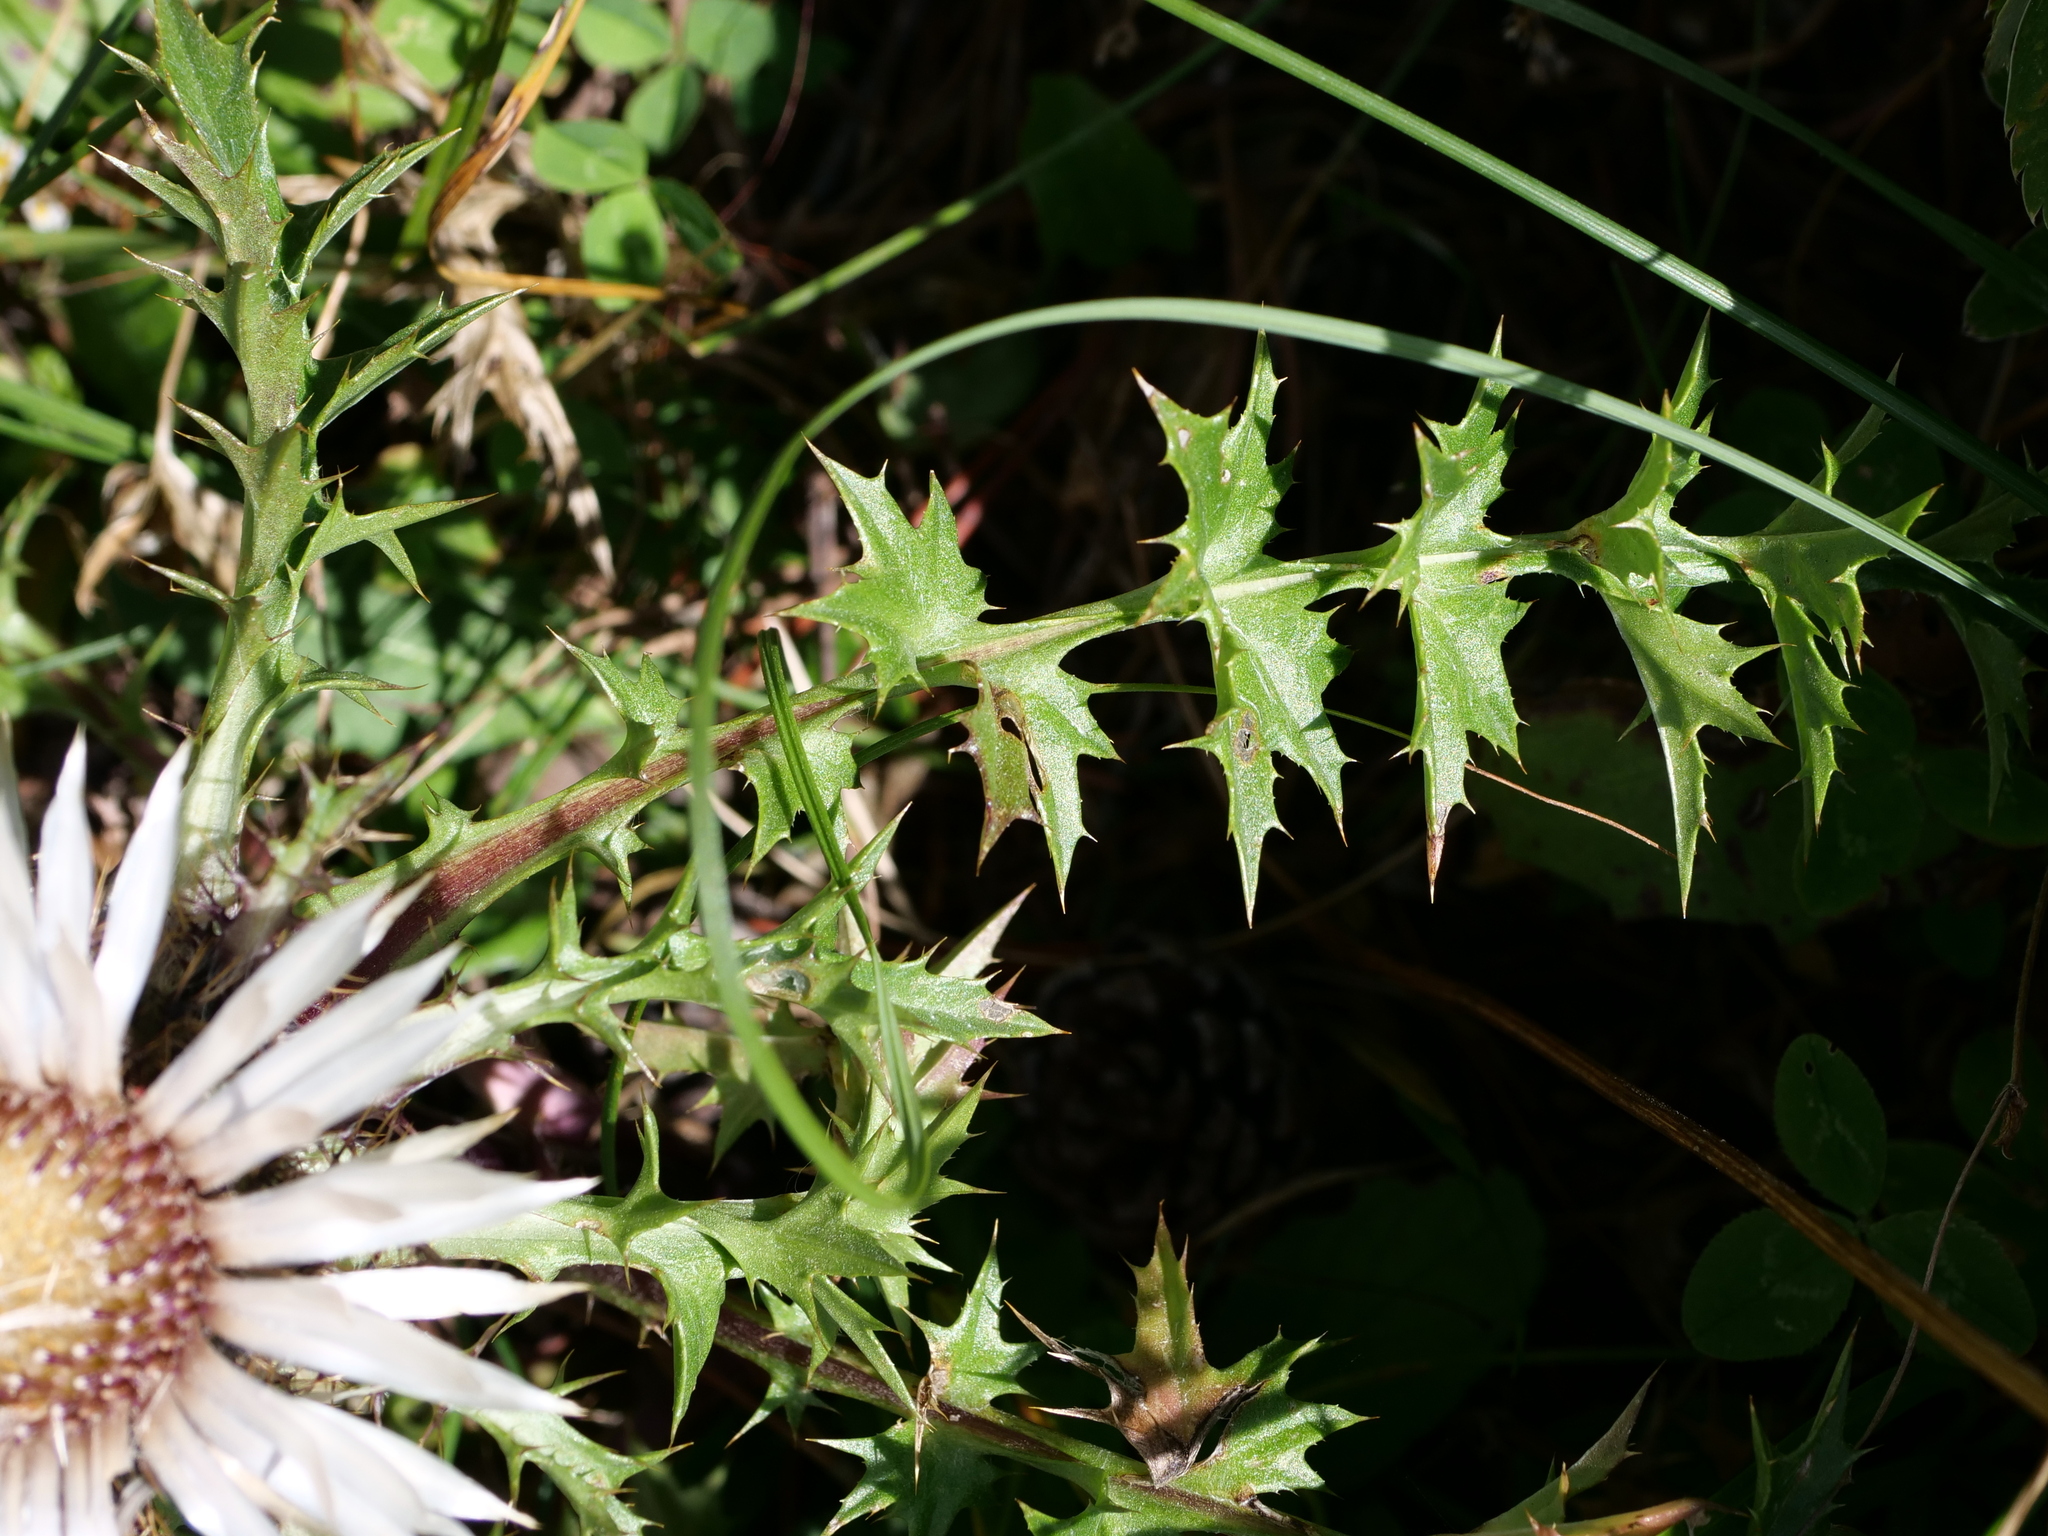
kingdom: Plantae
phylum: Tracheophyta
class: Magnoliopsida
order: Asterales
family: Asteraceae
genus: Carlina
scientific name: Carlina acaulis
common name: Stemless carline thistle
